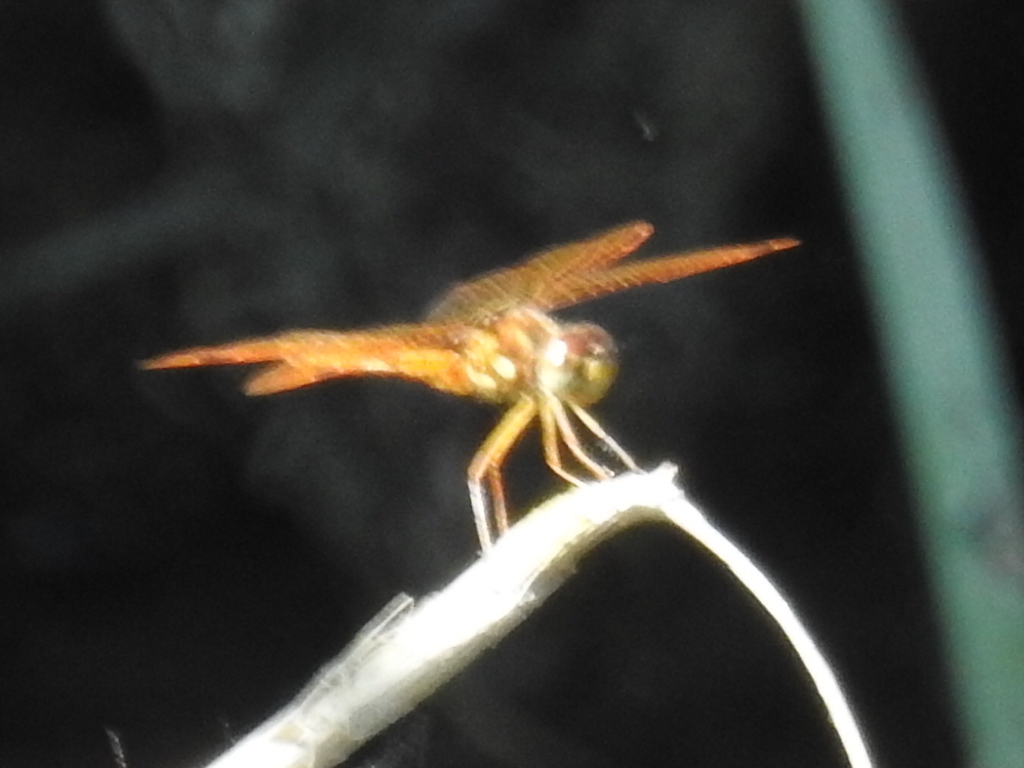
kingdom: Animalia
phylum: Arthropoda
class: Insecta
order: Odonata
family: Libellulidae
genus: Perithemis
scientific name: Perithemis tenera
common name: Eastern amberwing
